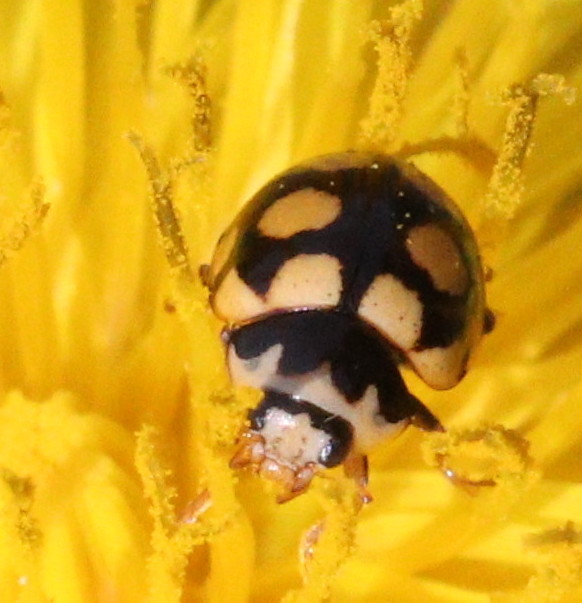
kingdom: Animalia
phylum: Arthropoda
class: Insecta
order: Coleoptera
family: Coccinellidae
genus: Coccinula
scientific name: Coccinula quatuordecimpustulata
